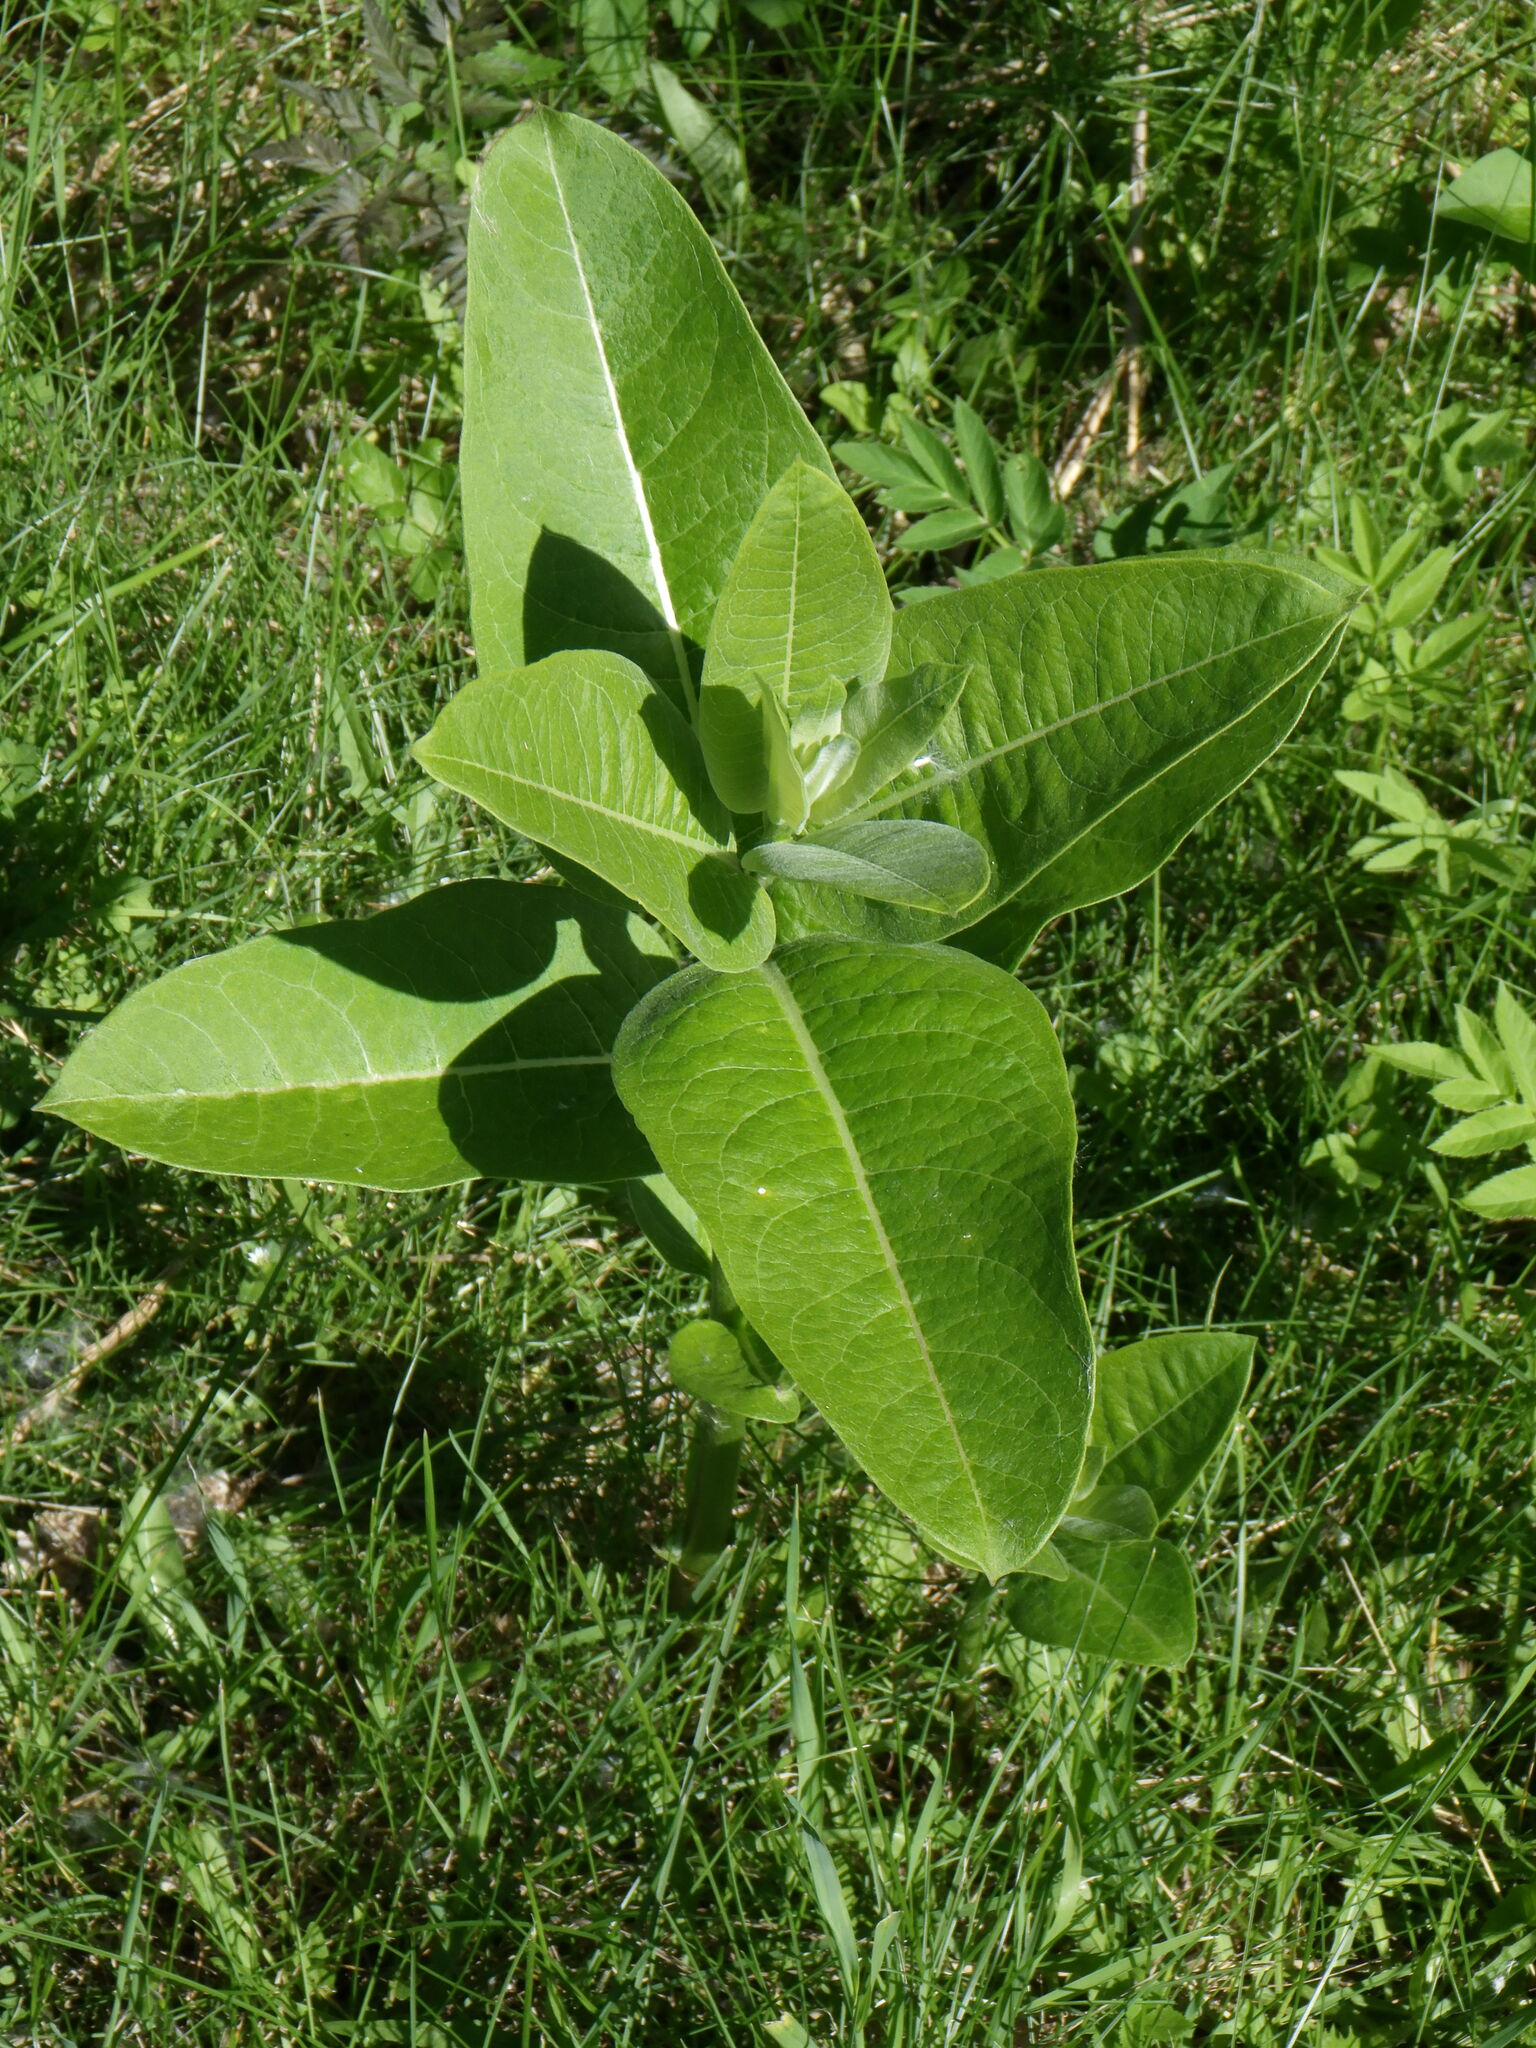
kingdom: Plantae
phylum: Tracheophyta
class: Magnoliopsida
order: Gentianales
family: Apocynaceae
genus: Asclepias
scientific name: Asclepias syriaca
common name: Common milkweed
